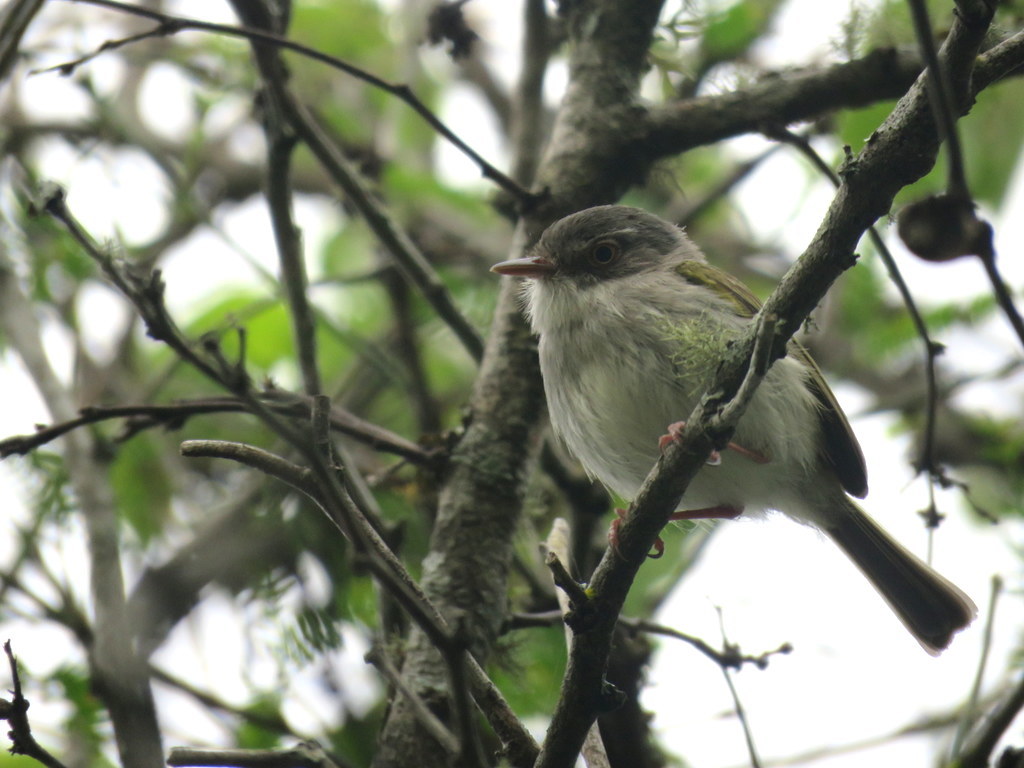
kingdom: Animalia
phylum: Chordata
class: Aves
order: Passeriformes
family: Tyrannidae
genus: Hemitriccus
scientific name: Hemitriccus margaritaceiventer
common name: Pearly-vented tody-tyrant
